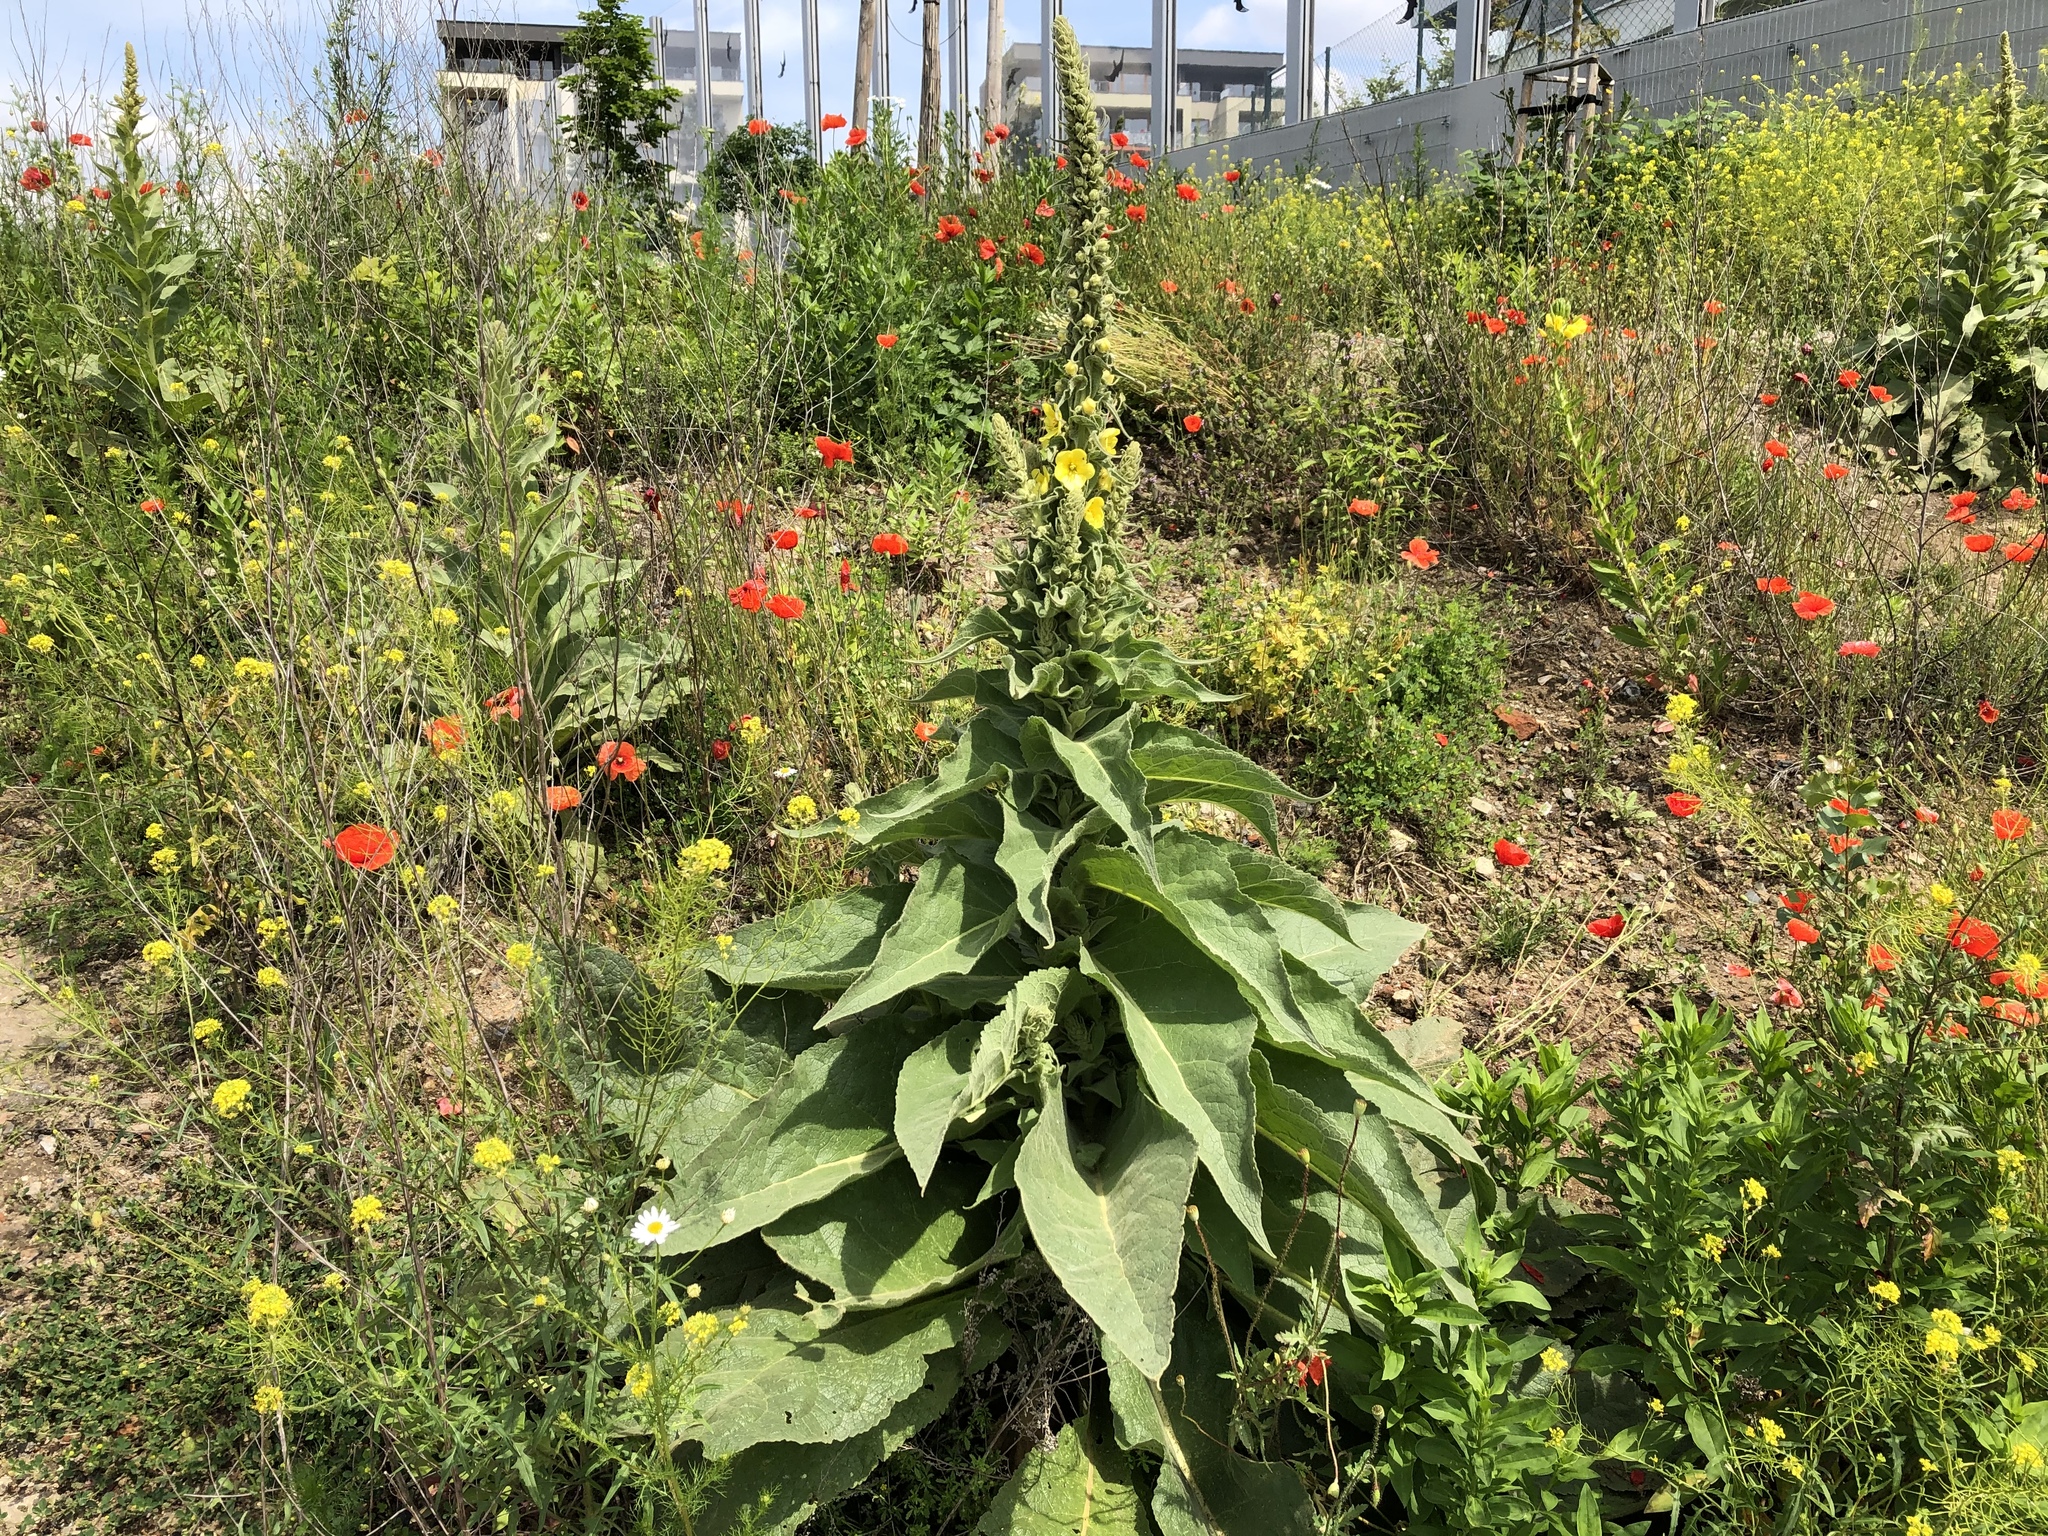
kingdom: Plantae
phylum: Tracheophyta
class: Magnoliopsida
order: Lamiales
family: Scrophulariaceae
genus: Verbascum
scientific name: Verbascum densiflorum
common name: Dense-flowered mullein
